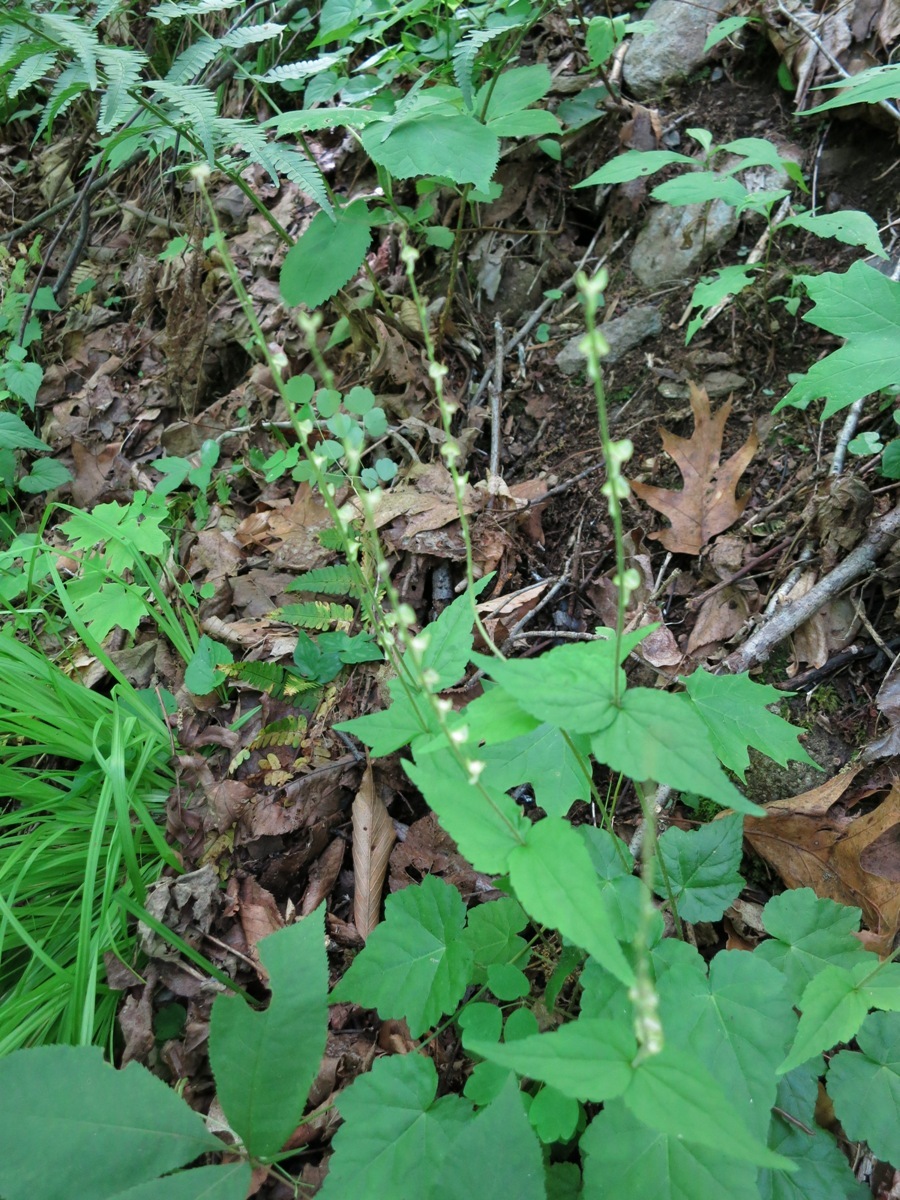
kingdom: Plantae
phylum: Tracheophyta
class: Magnoliopsida
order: Saxifragales
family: Saxifragaceae
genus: Mitella
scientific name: Mitella diphylla
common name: Coolwort
